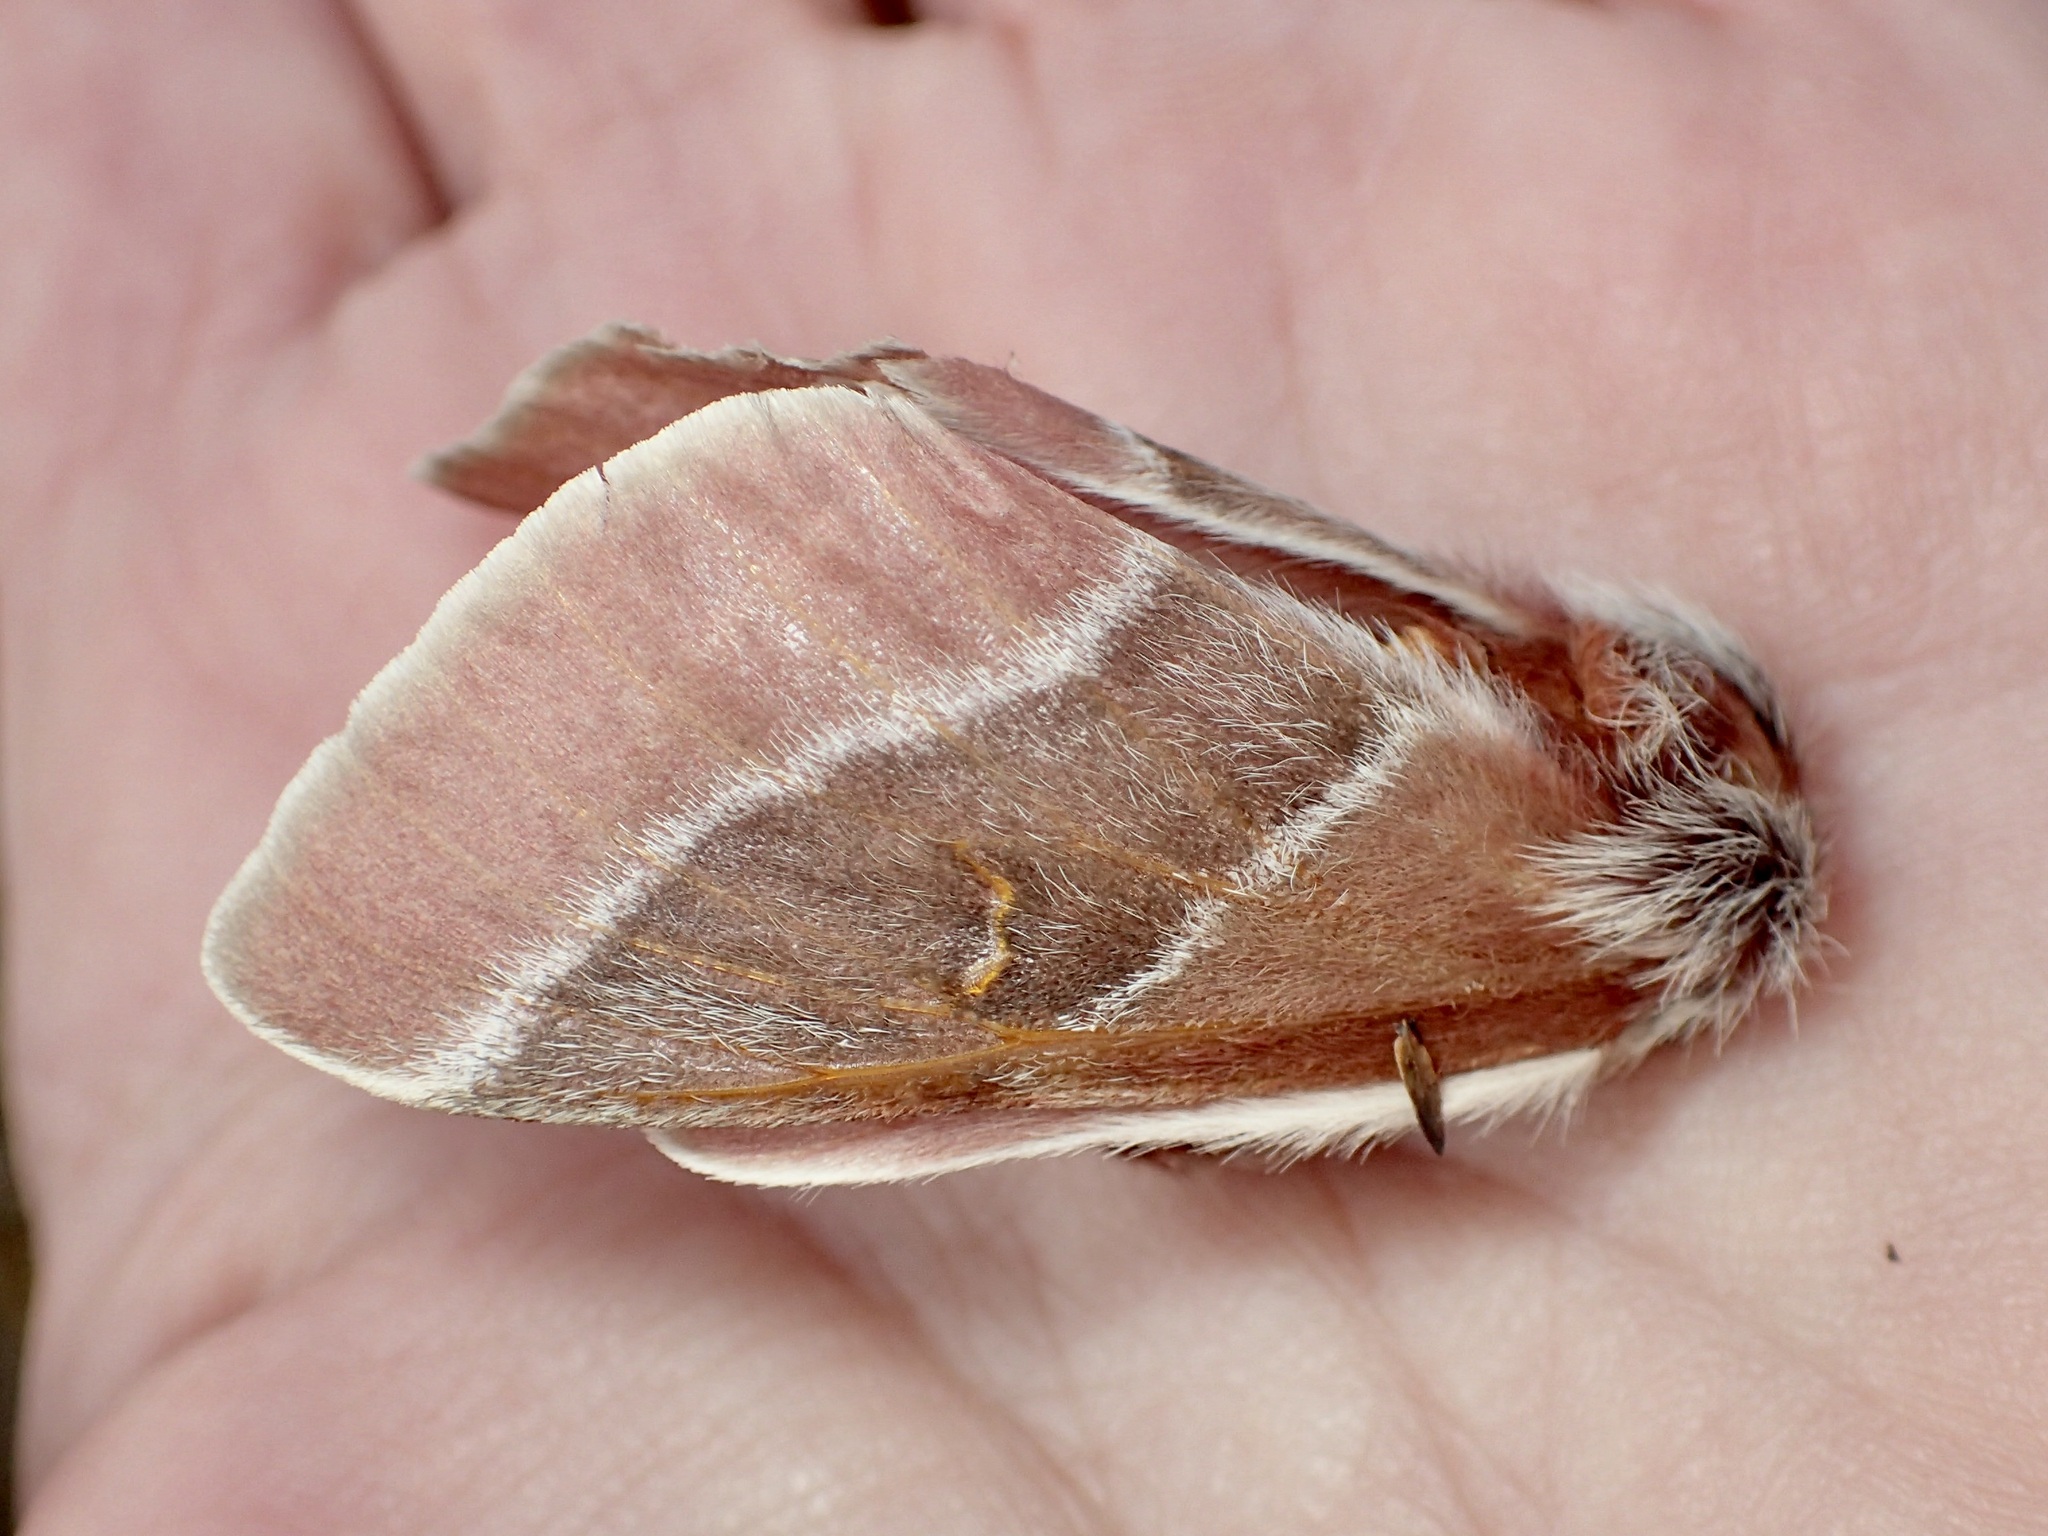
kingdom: Animalia
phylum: Arthropoda
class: Insecta
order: Lepidoptera
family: Saturniidae
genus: Hemileuca
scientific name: Hemileuca sororius
